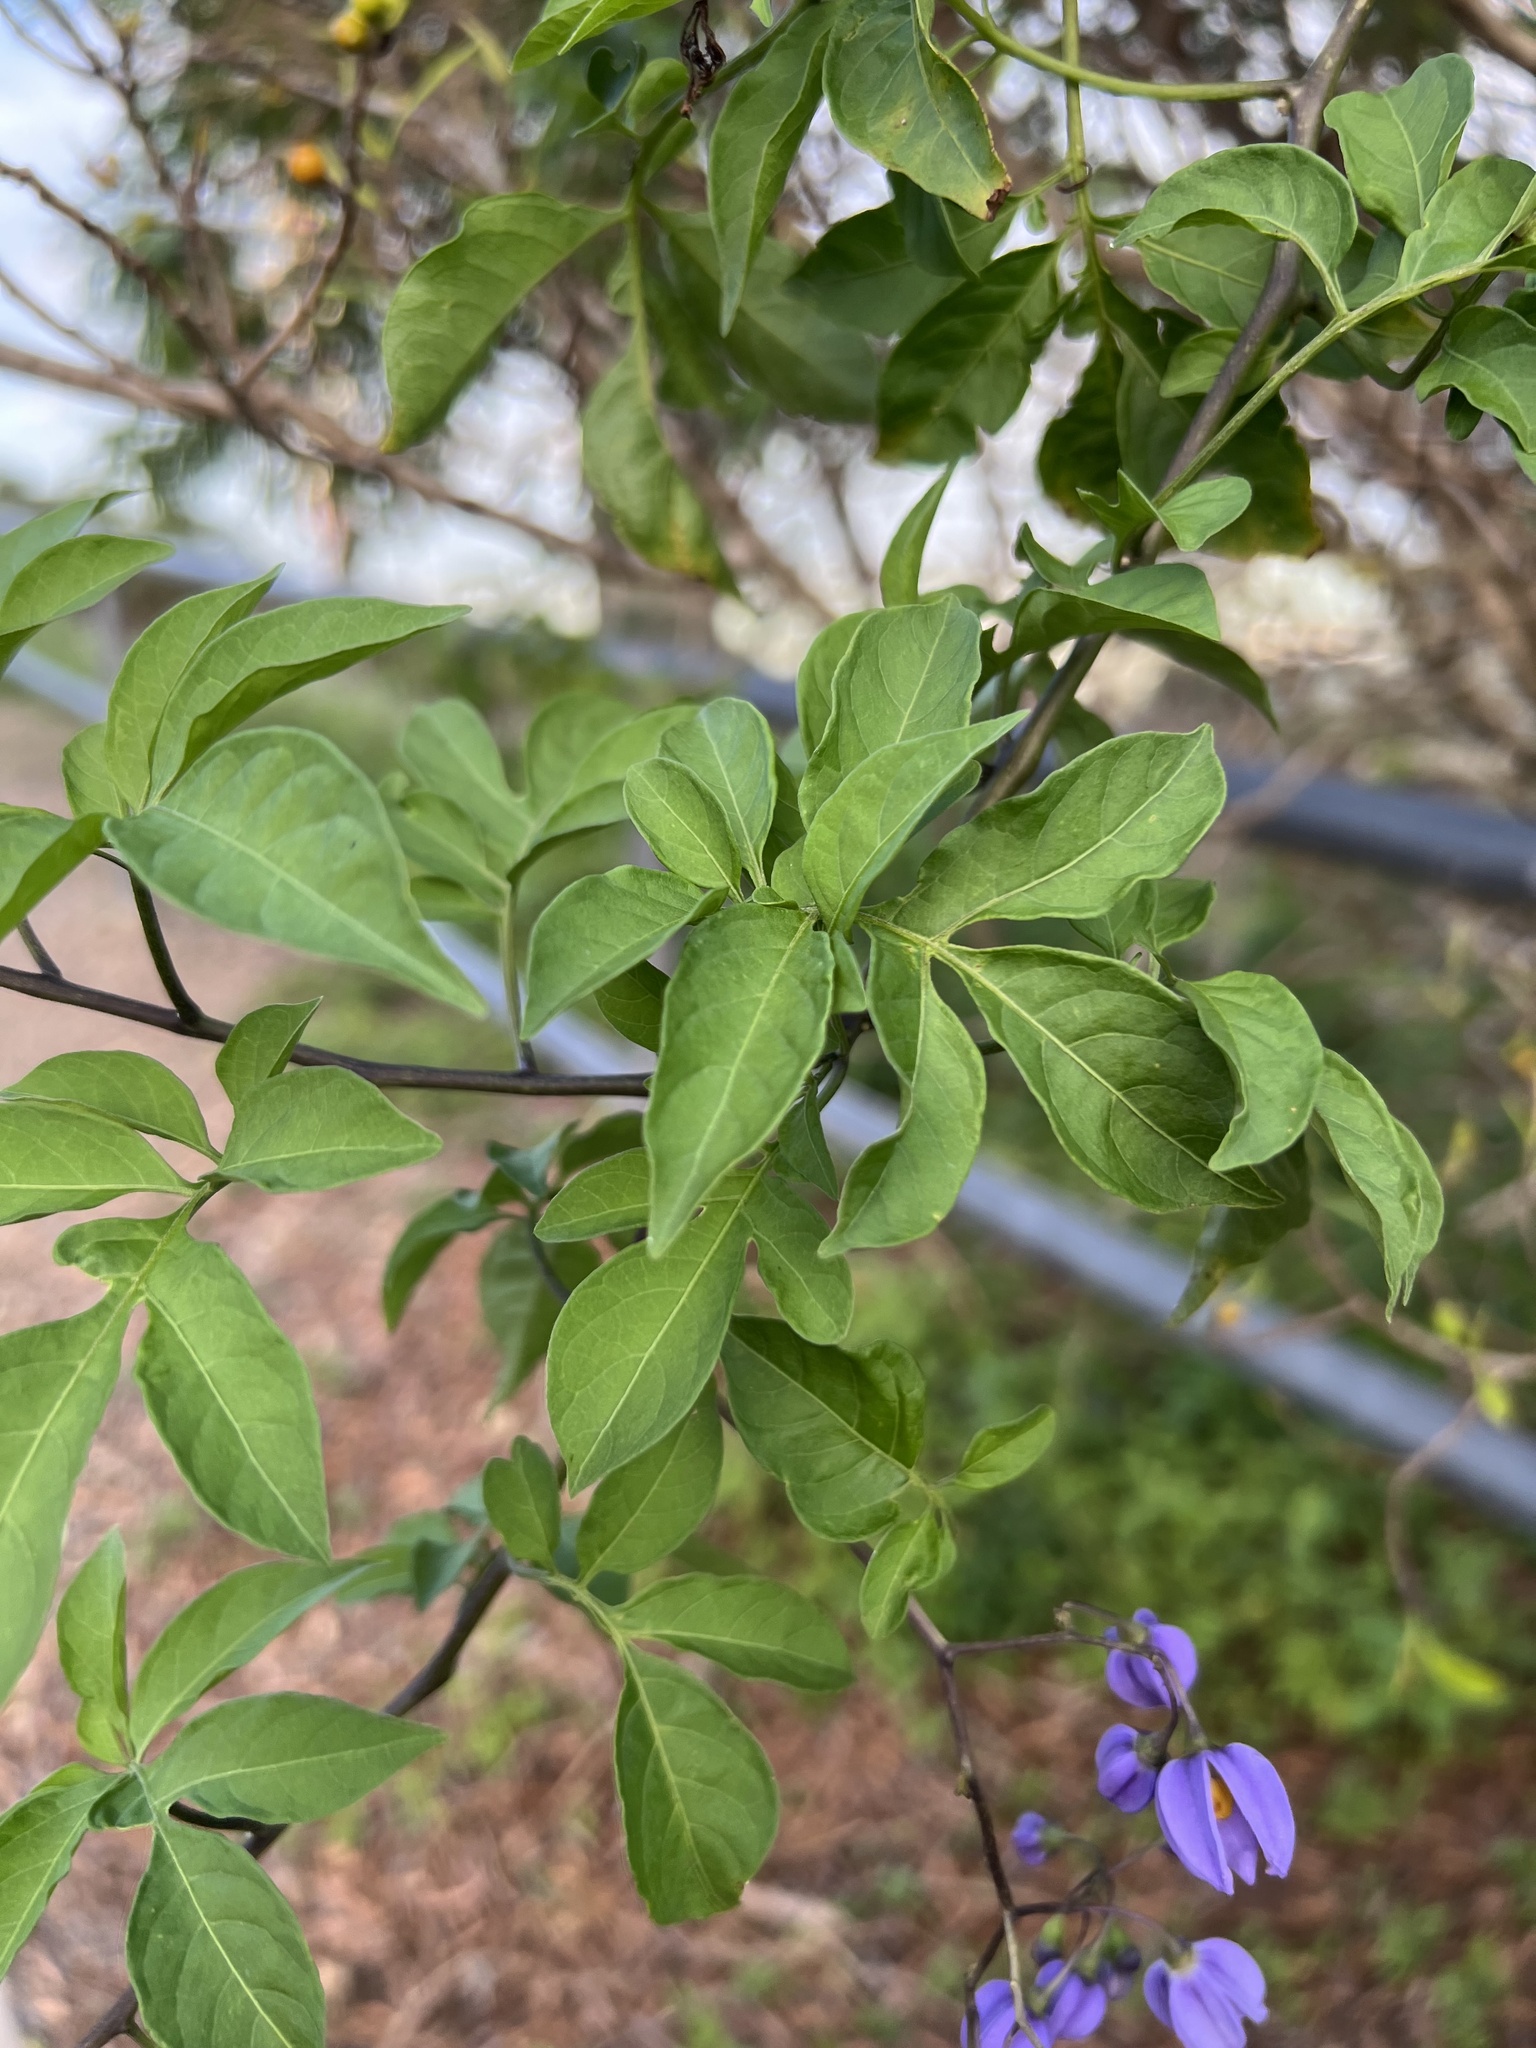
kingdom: Plantae
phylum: Tracheophyta
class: Magnoliopsida
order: Solanales
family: Solanaceae
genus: Solanum
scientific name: Solanum seaforthianum
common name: Brazilian nightshade
